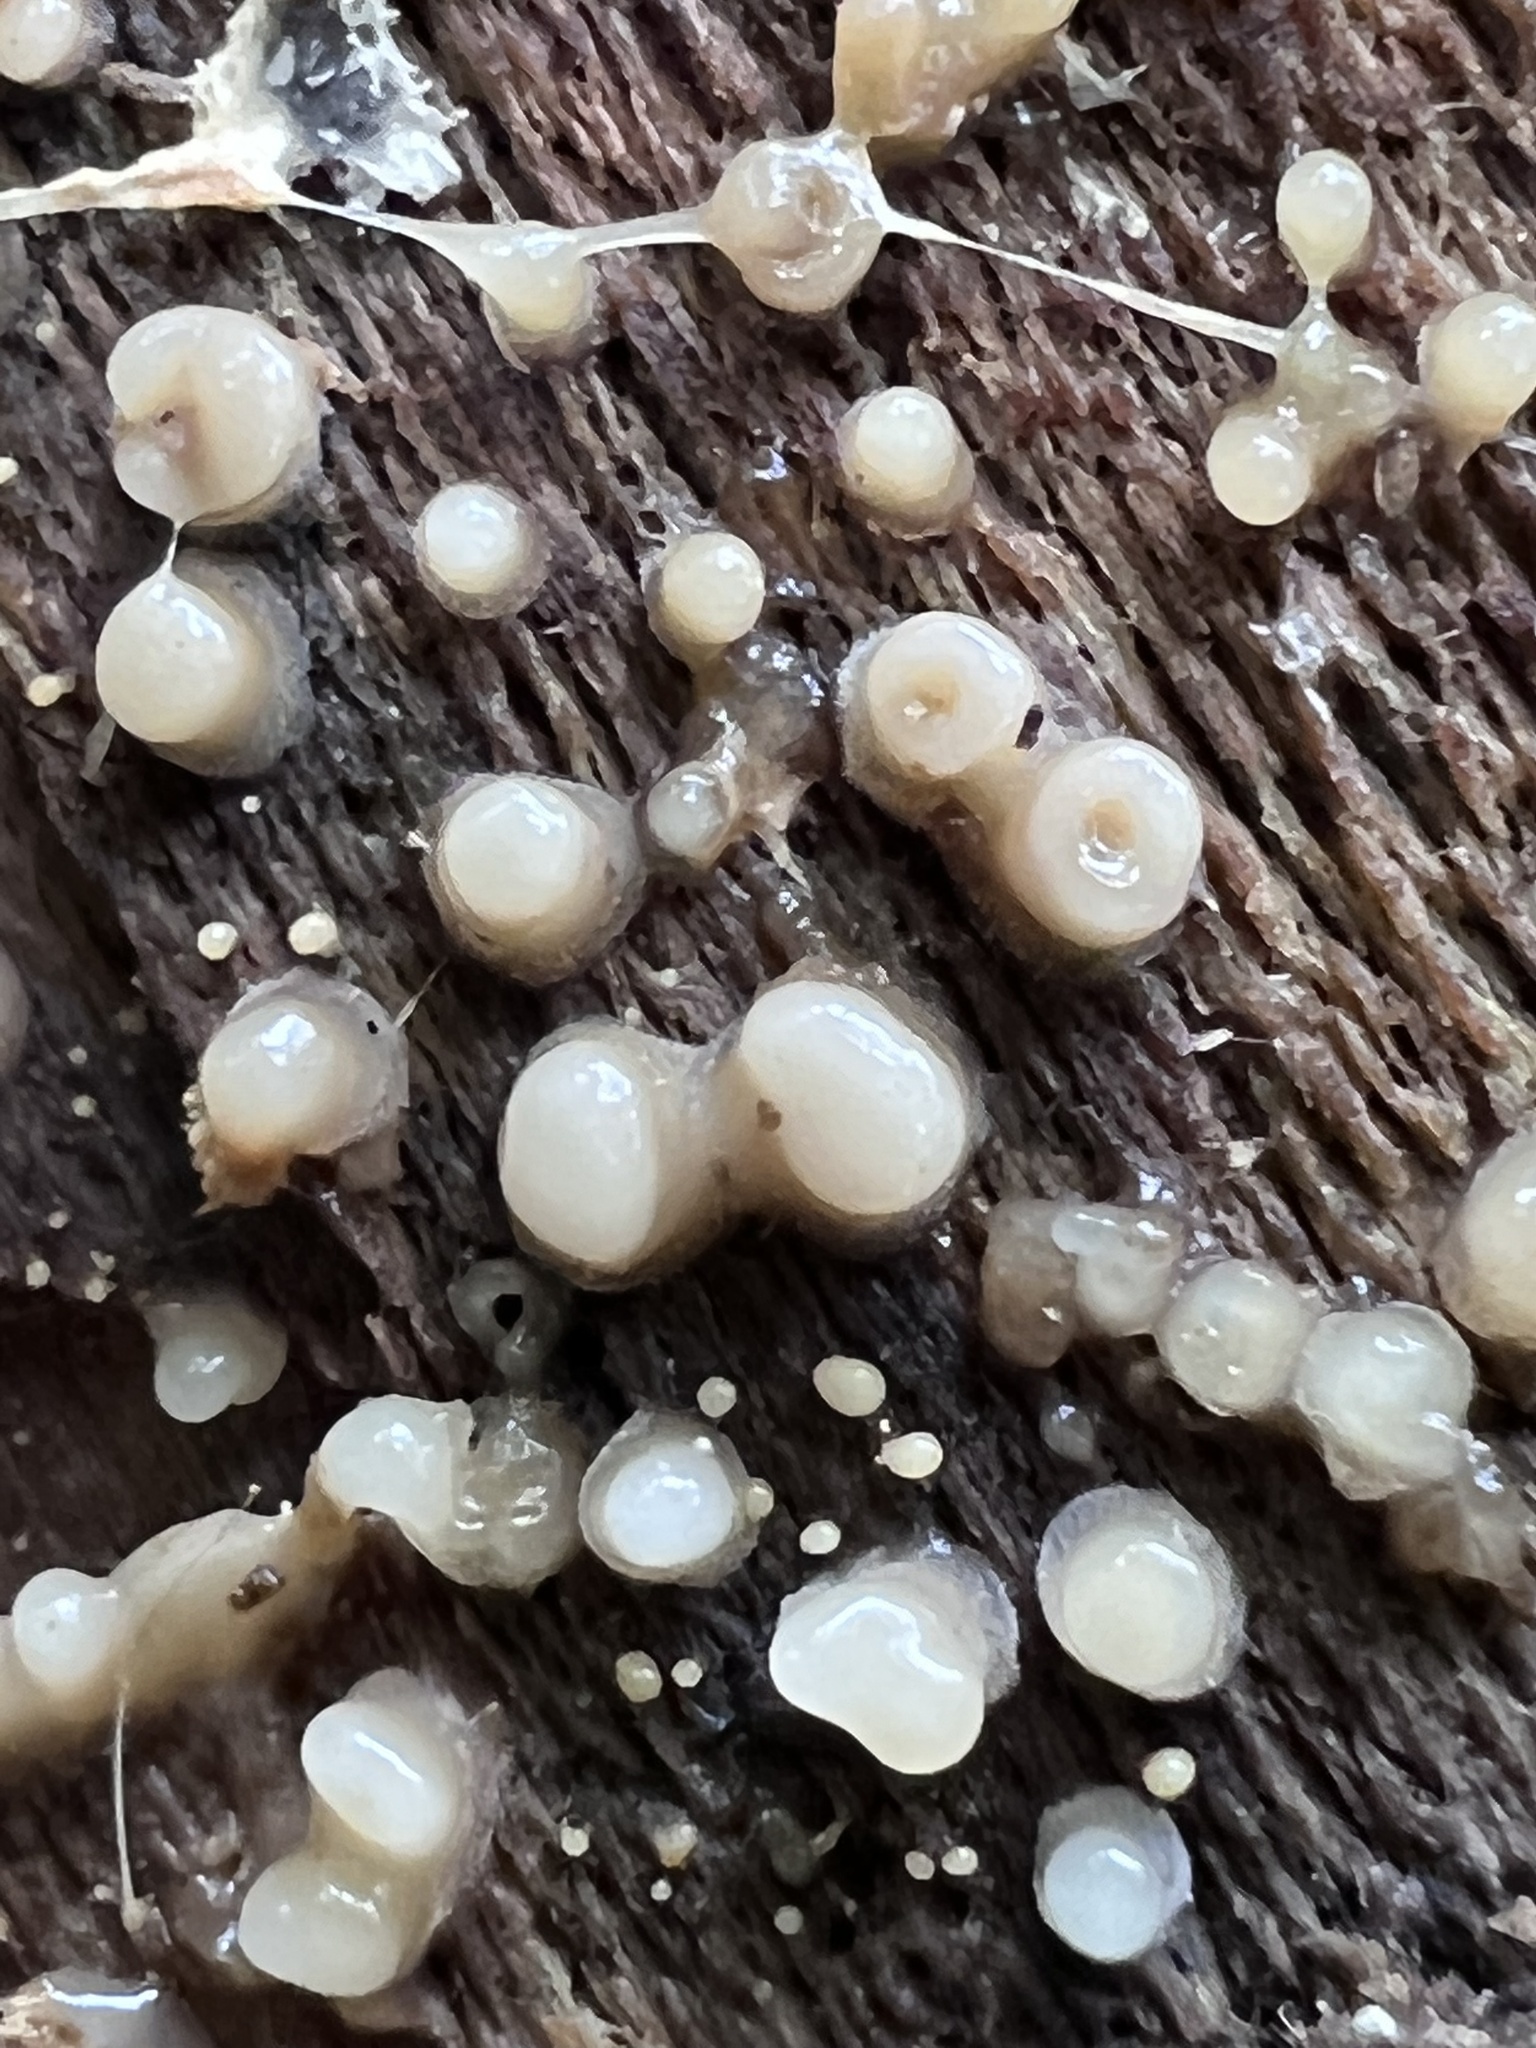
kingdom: Fungi
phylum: Basidiomycota
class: Atractiellomycetes
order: Atractiellales
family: Phleogenaceae
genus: Helicogloea
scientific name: Helicogloea compressa
